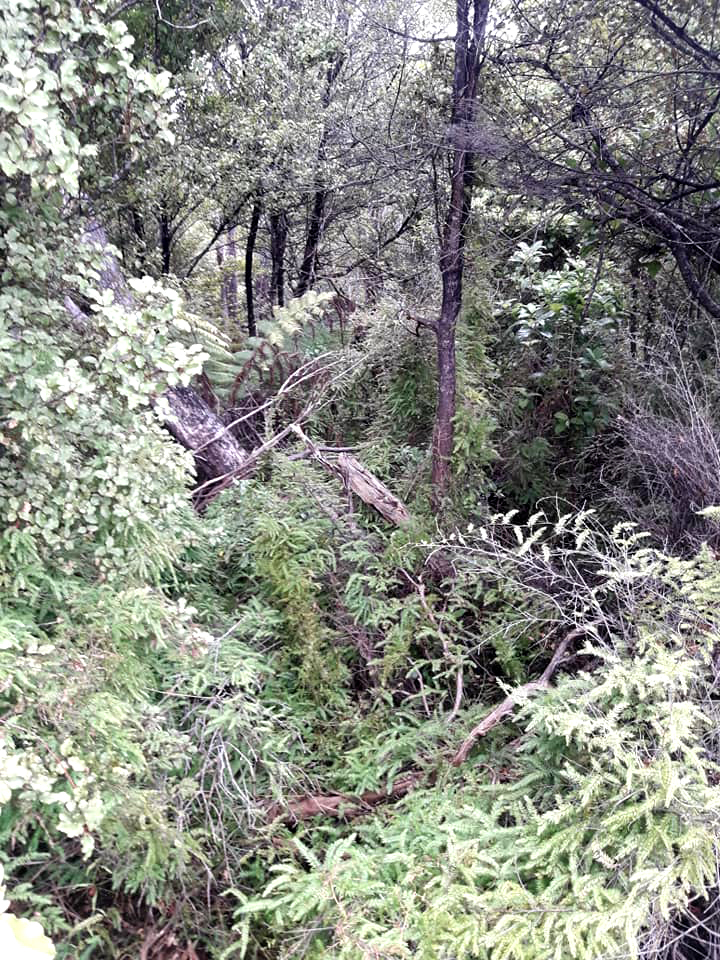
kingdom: Plantae
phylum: Tracheophyta
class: Liliopsida
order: Asparagales
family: Asparagaceae
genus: Asparagus
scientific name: Asparagus scandens
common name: Asparagus-fern
